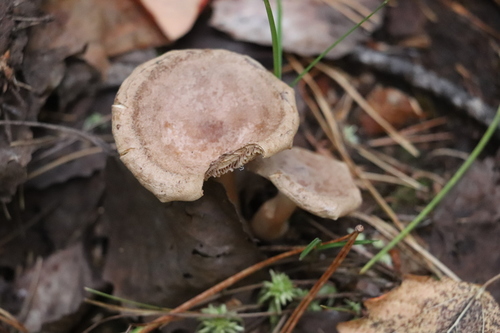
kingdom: Fungi
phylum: Basidiomycota
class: Agaricomycetes
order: Russulales
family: Russulaceae
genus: Lactarius
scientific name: Lactarius helvus
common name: Fenugreek milkcap
